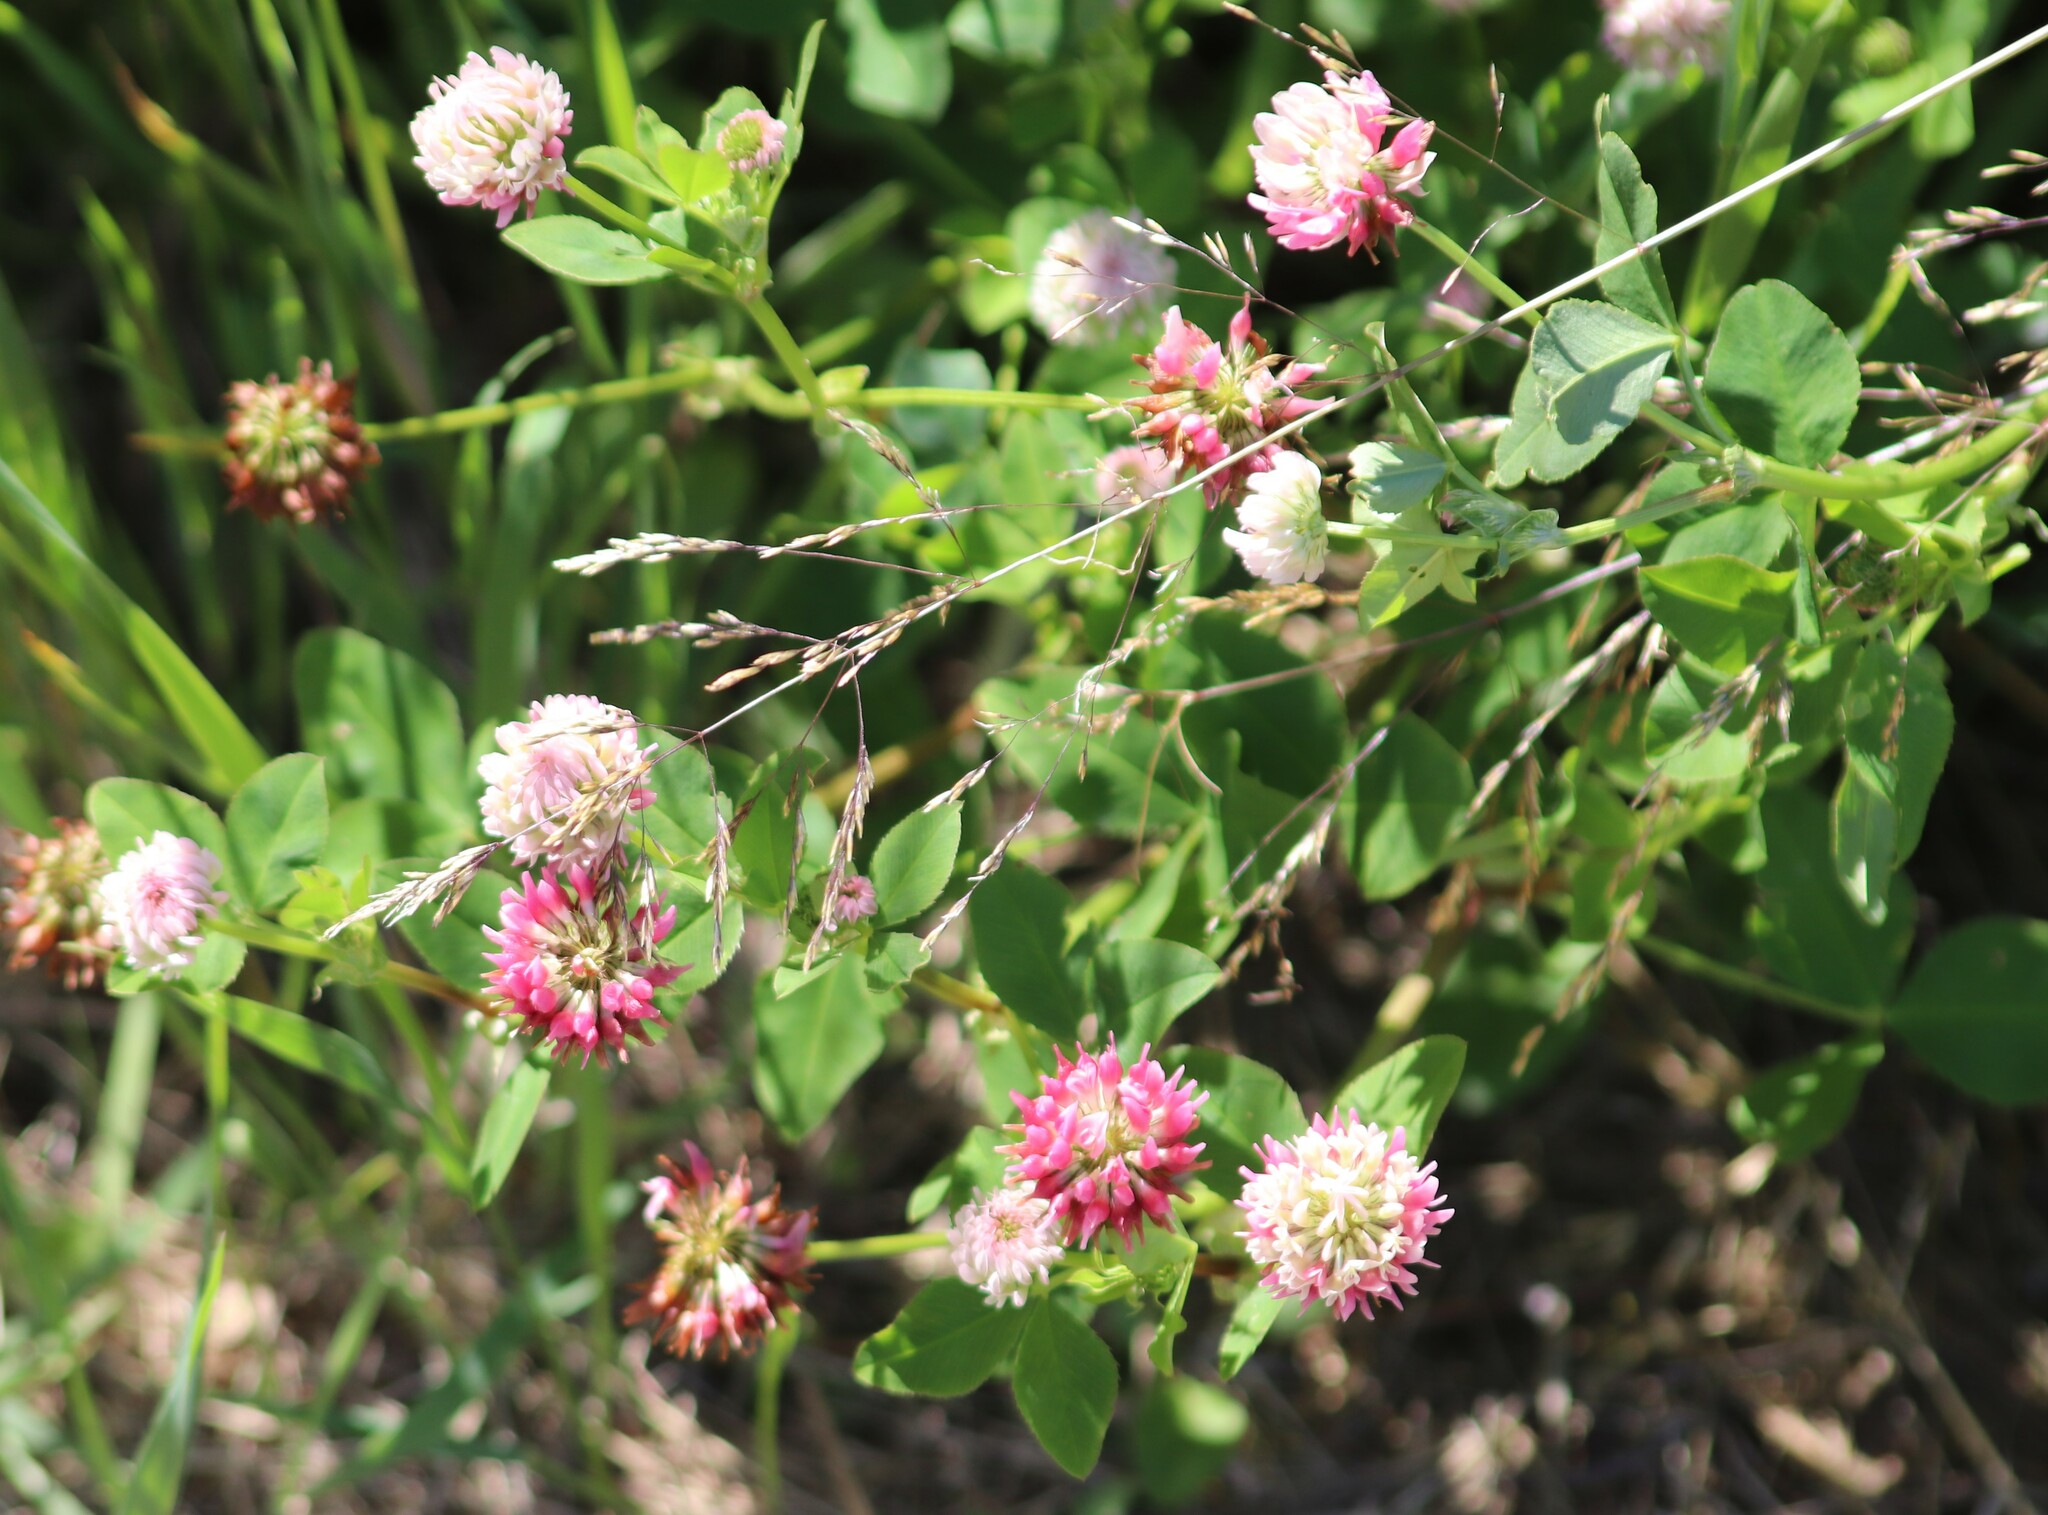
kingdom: Plantae
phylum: Tracheophyta
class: Magnoliopsida
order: Fabales
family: Fabaceae
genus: Trifolium
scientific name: Trifolium hybridum
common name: Alsike clover
